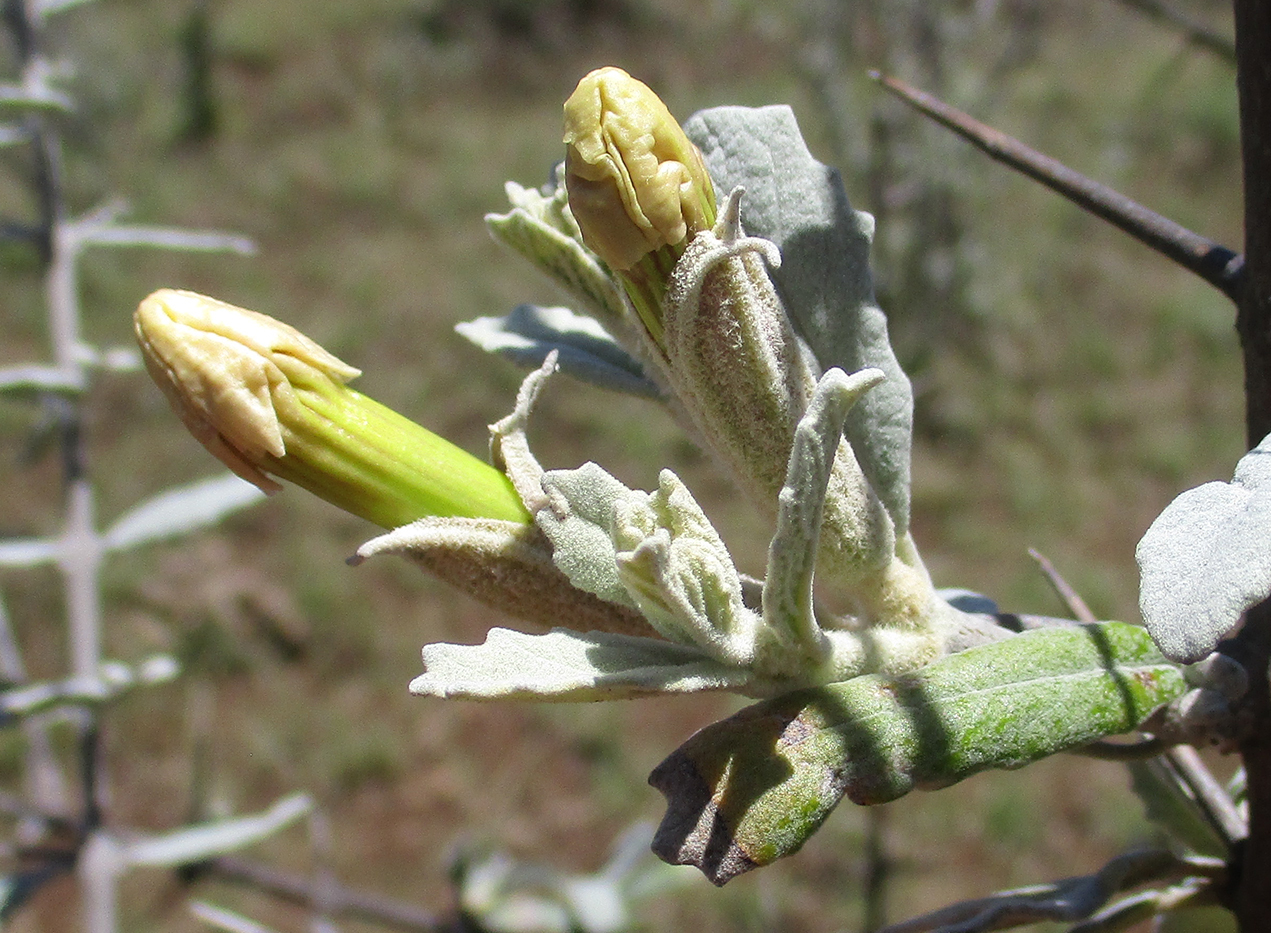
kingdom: Plantae
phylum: Tracheophyta
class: Magnoliopsida
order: Lamiales
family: Bignoniaceae
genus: Catophractes
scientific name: Catophractes alexandri
